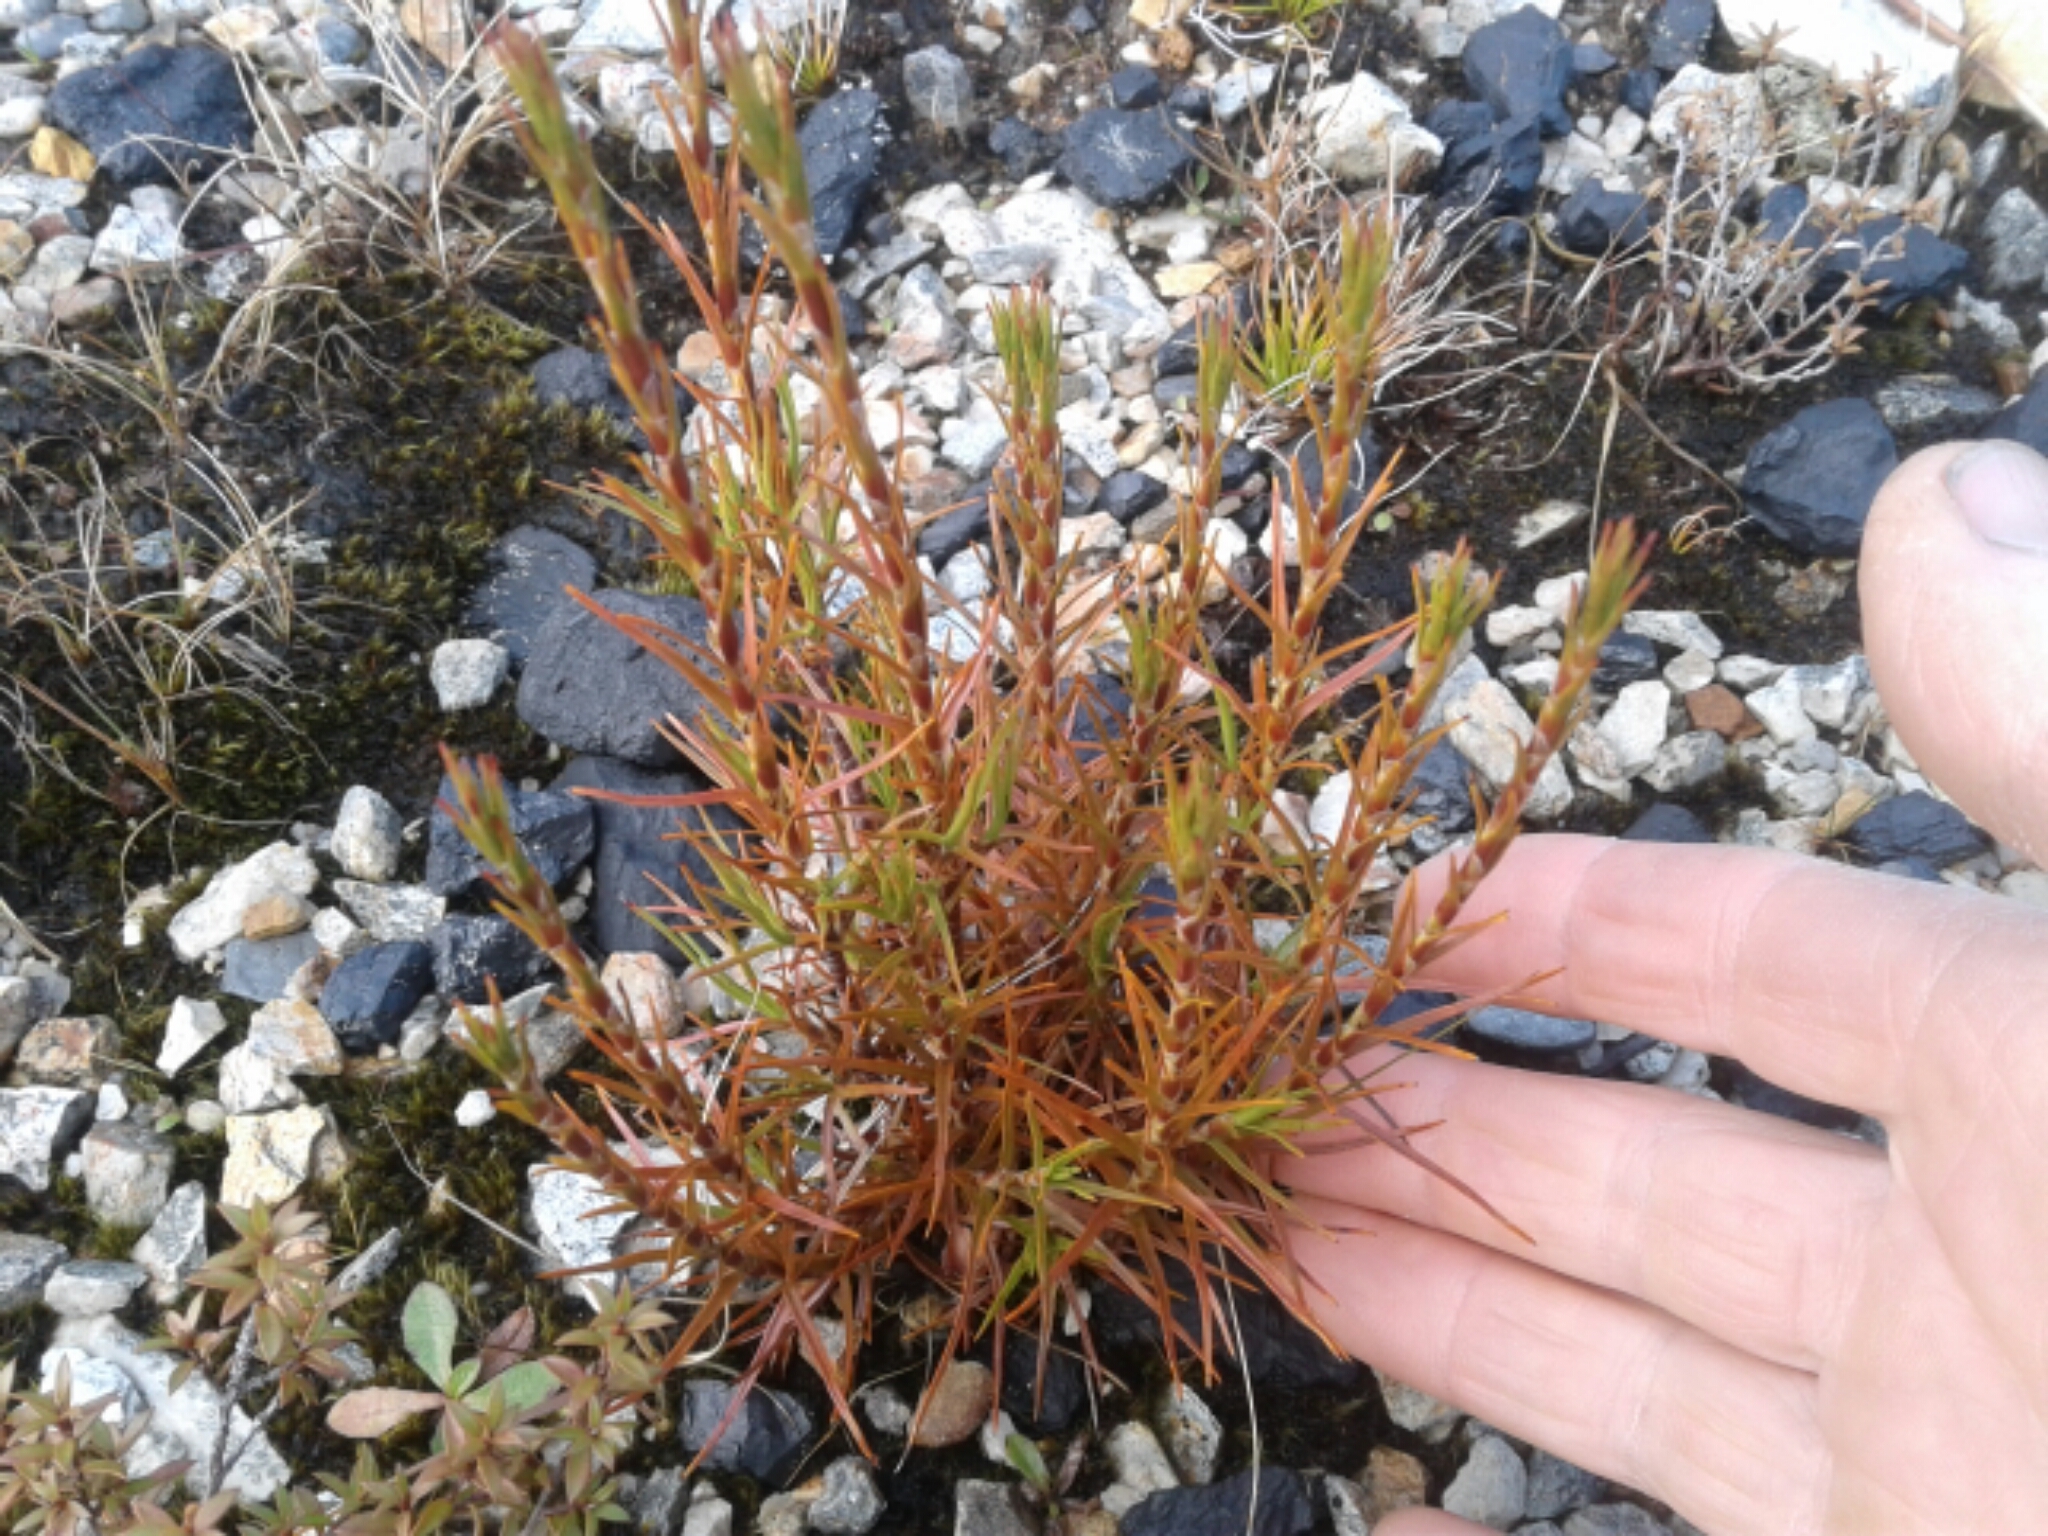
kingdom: Plantae
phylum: Tracheophyta
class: Magnoliopsida
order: Ericales
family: Ericaceae
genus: Dracophyllum
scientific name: Dracophyllum
